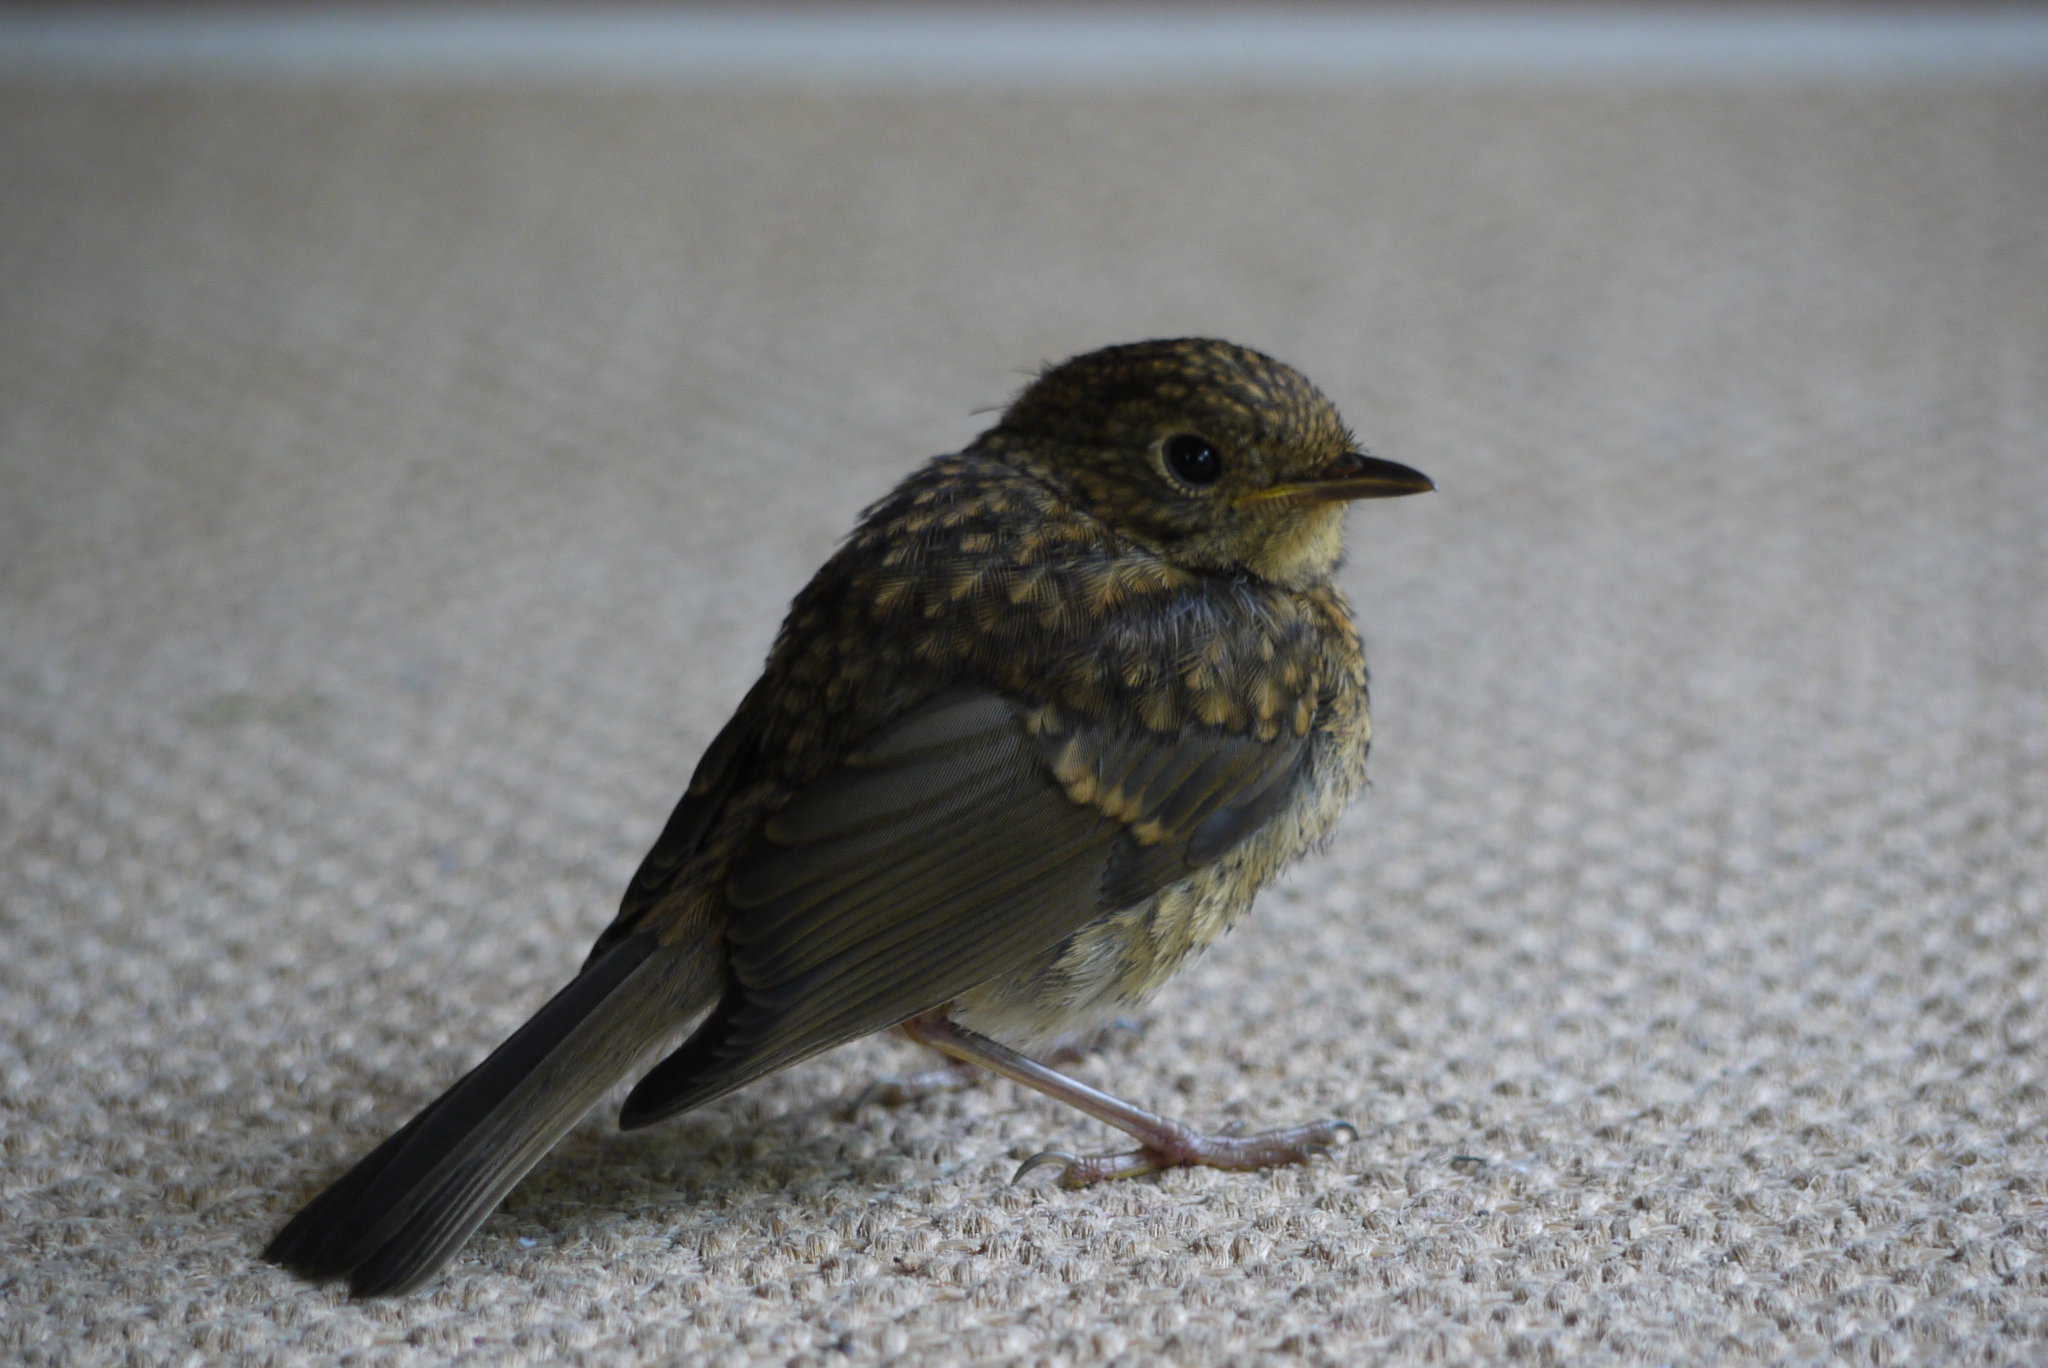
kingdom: Animalia
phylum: Chordata
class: Aves
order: Passeriformes
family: Muscicapidae
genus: Erithacus
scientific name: Erithacus rubecula
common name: European robin
